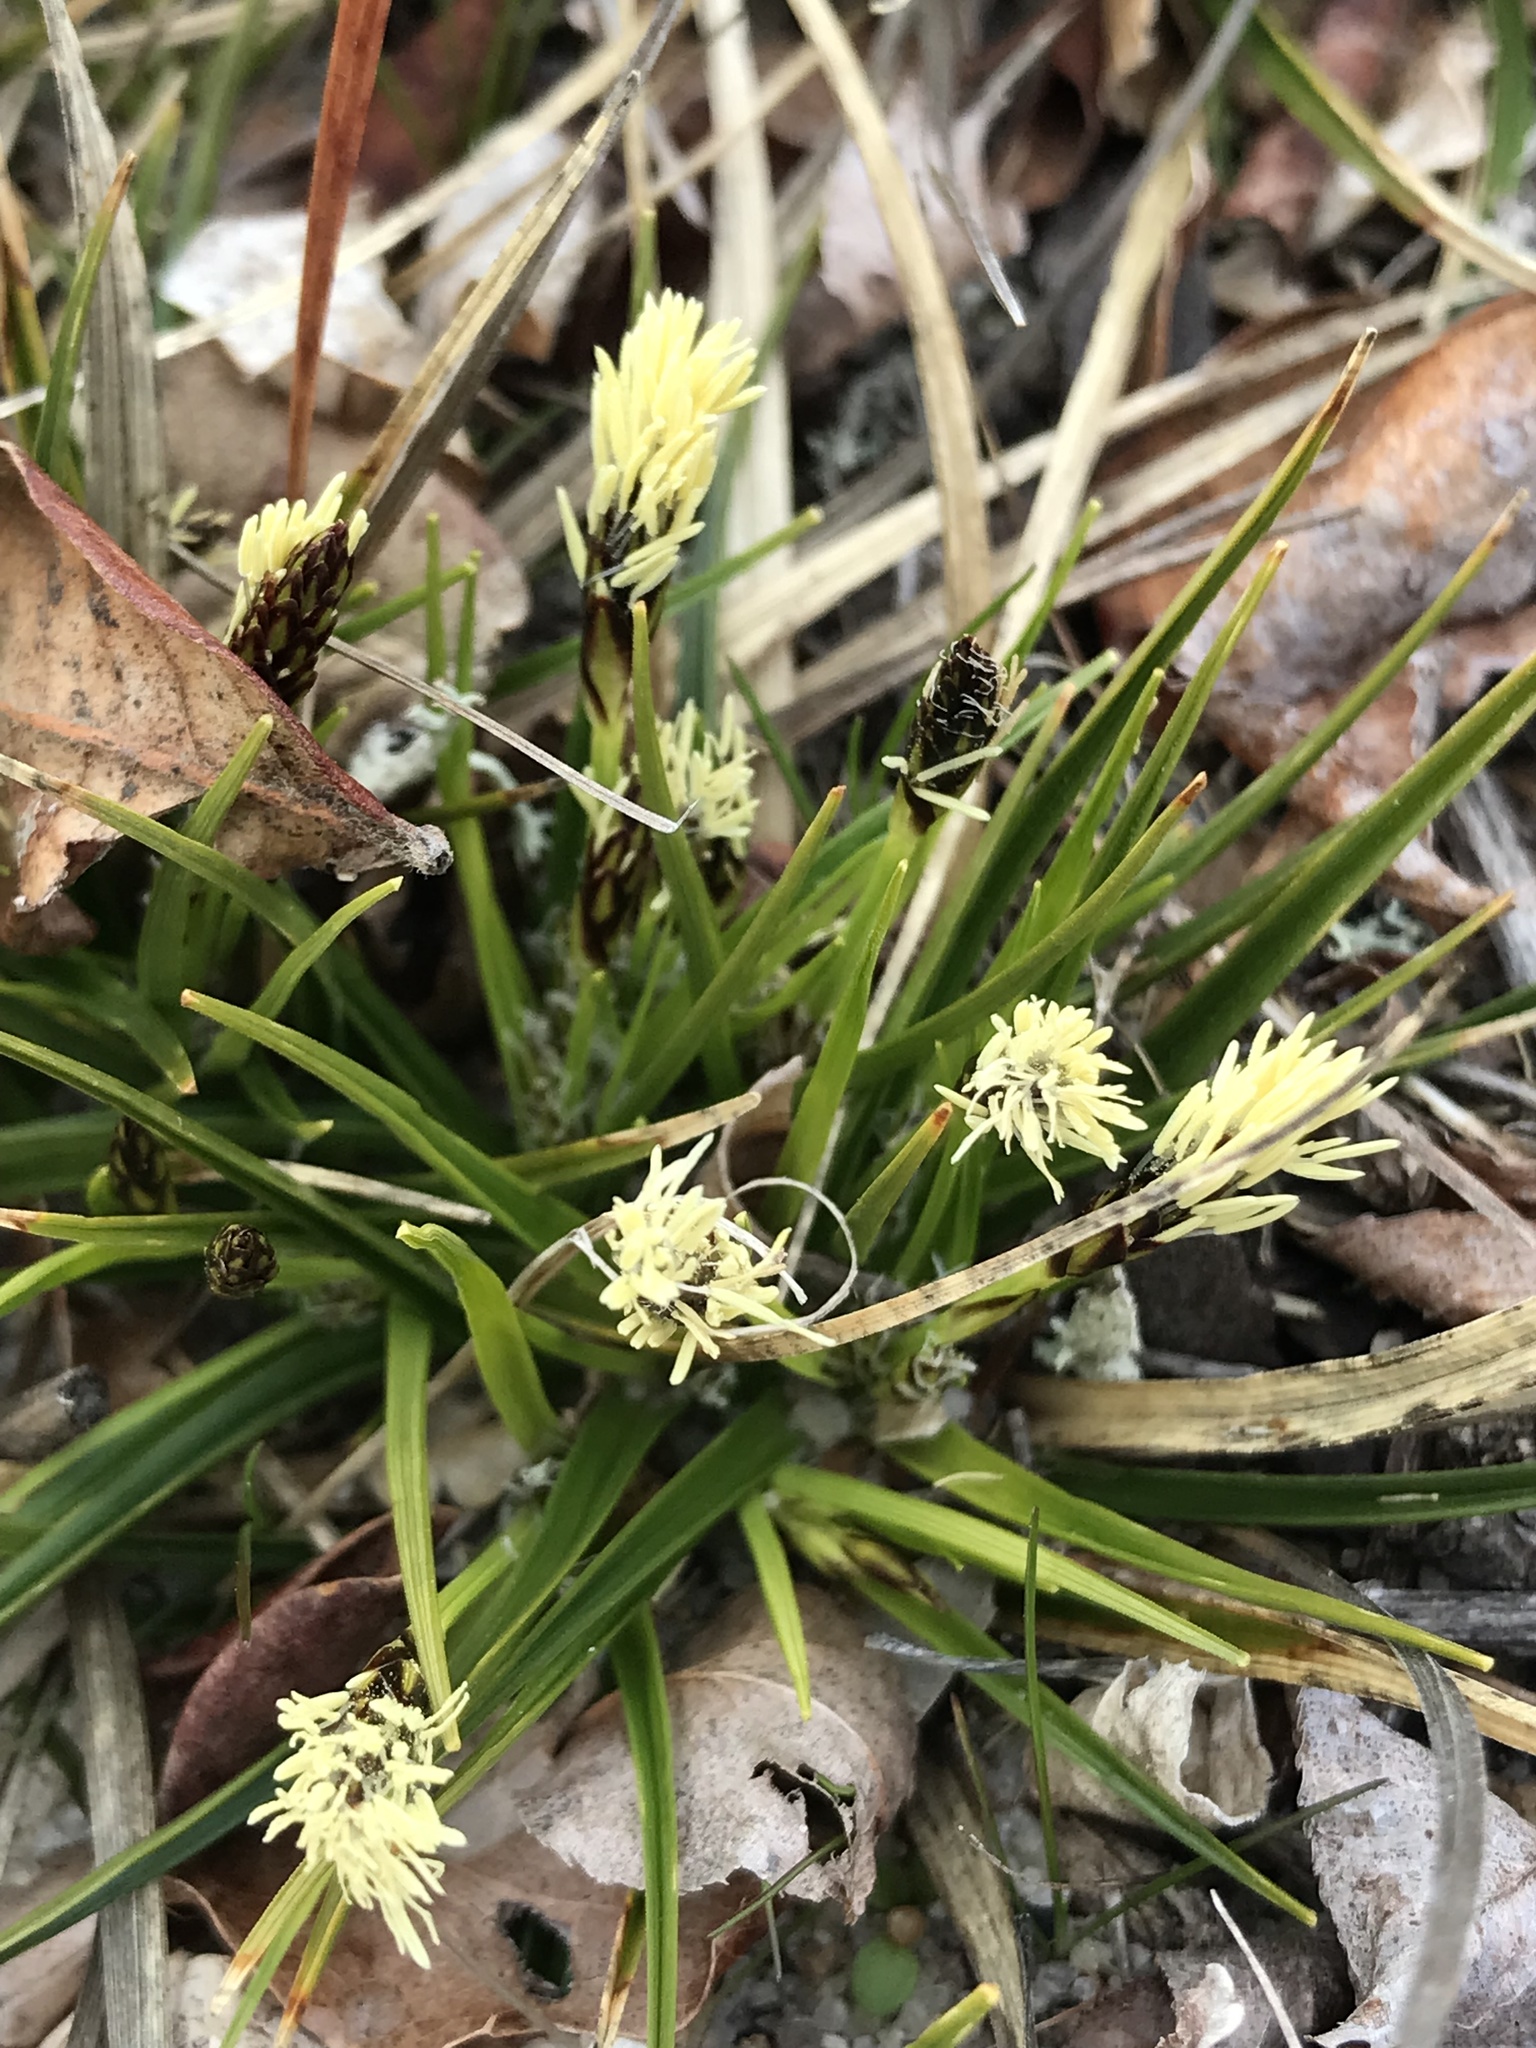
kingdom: Plantae
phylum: Tracheophyta
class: Liliopsida
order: Poales
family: Cyperaceae
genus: Carex
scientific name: Carex tonsa
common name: Bald sedge
